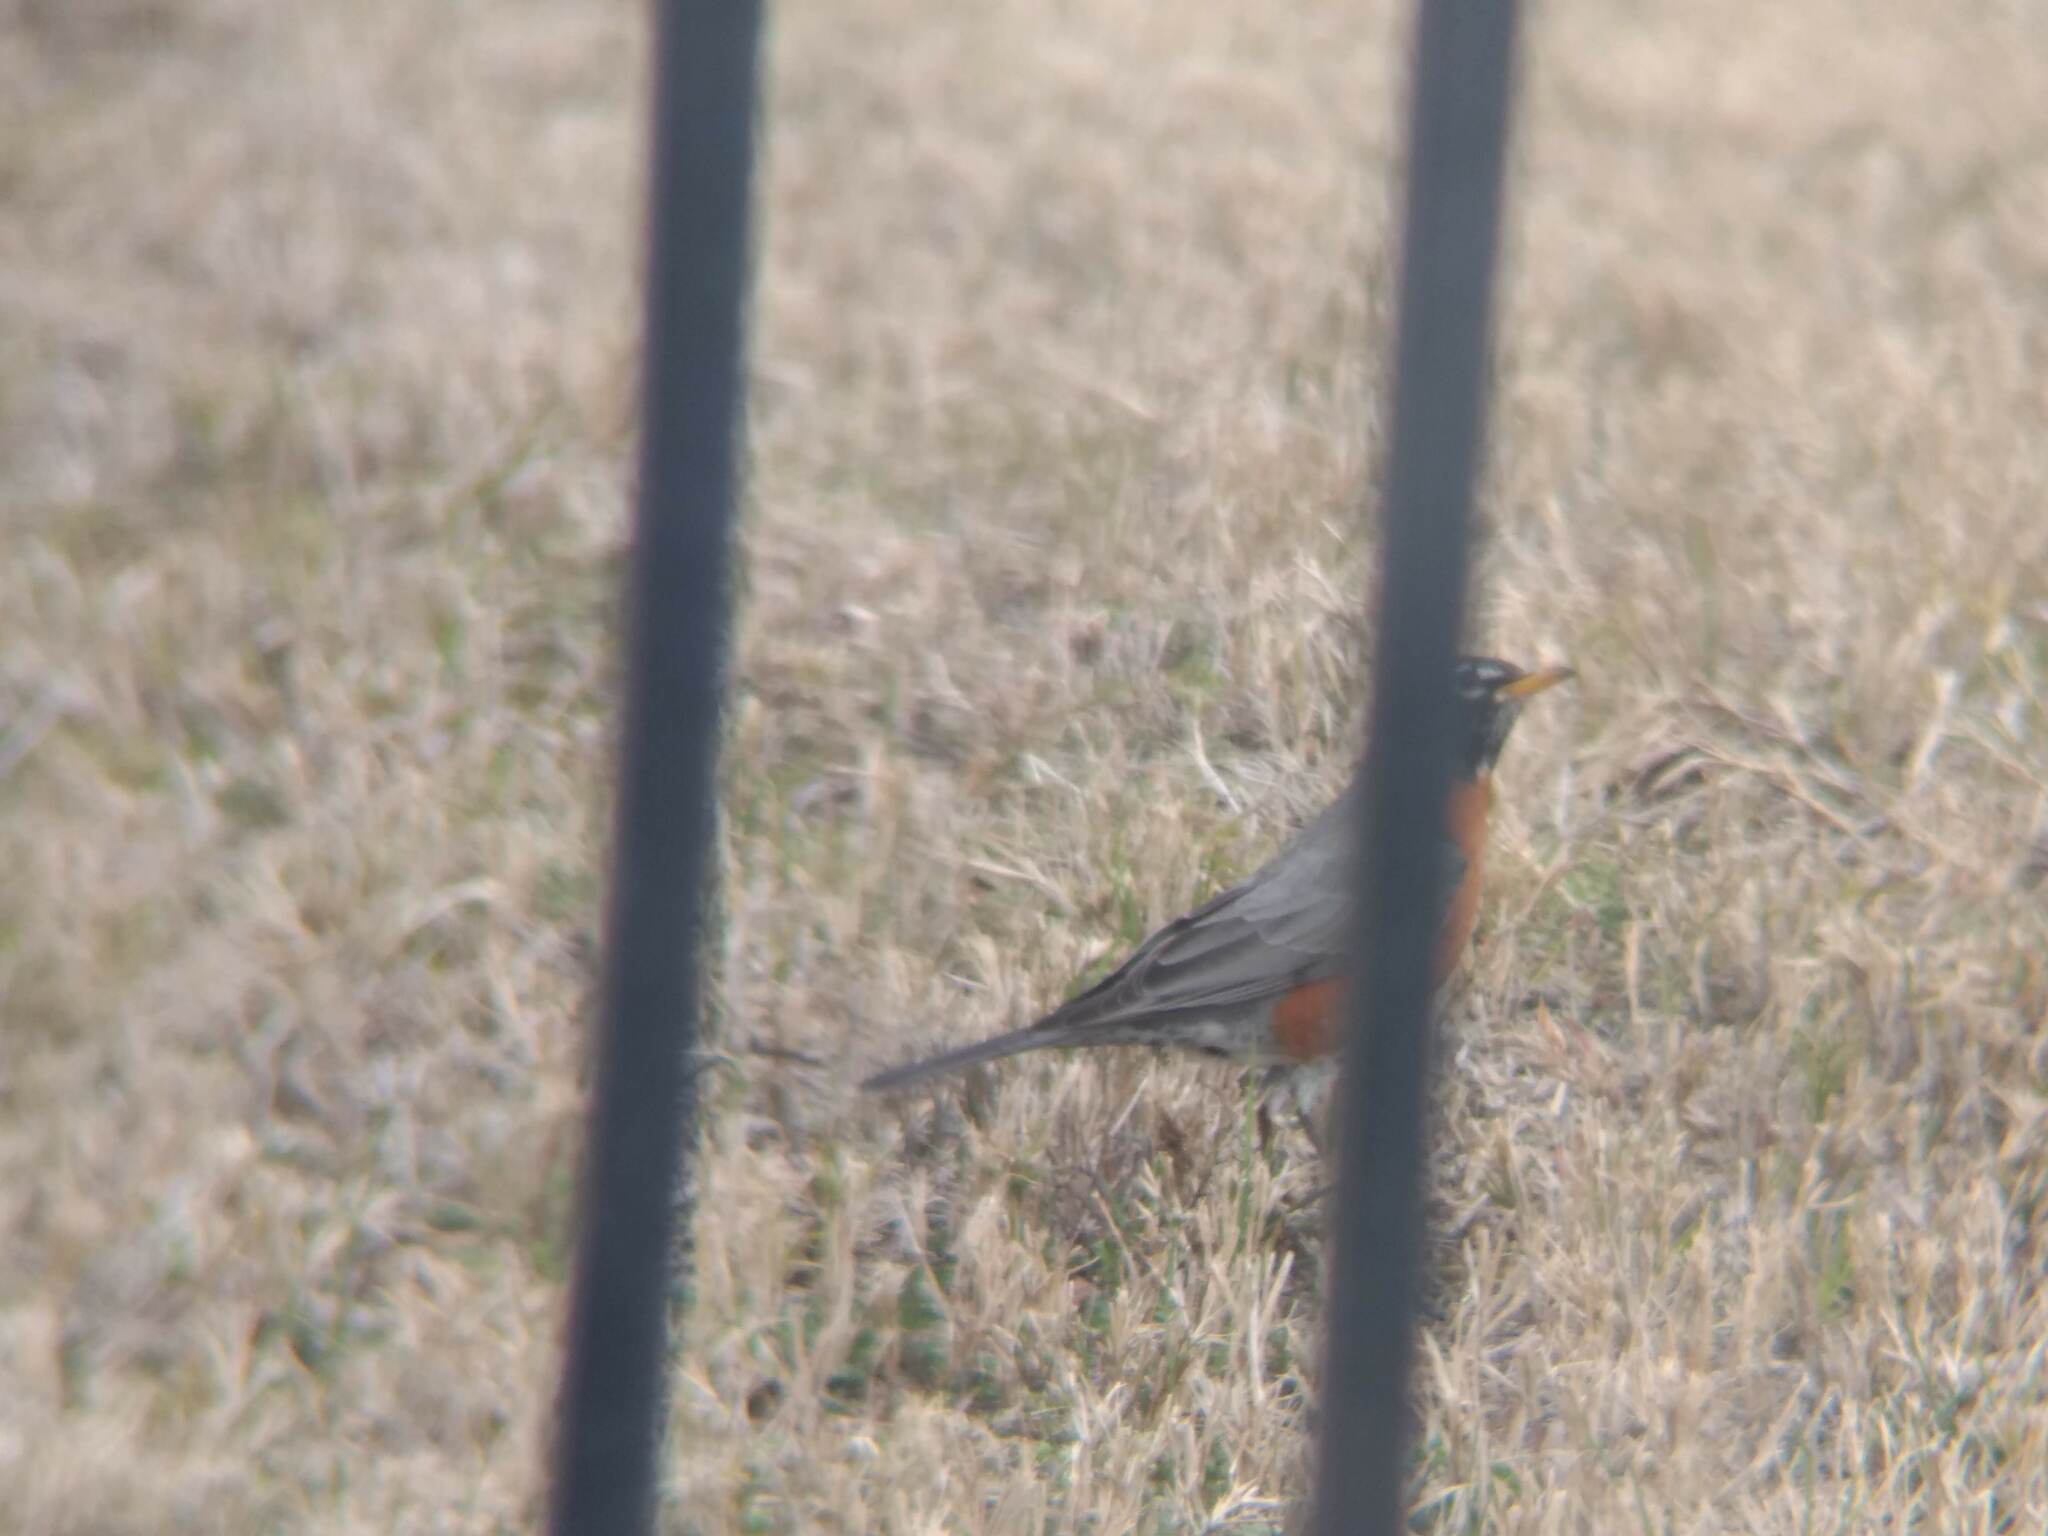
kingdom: Animalia
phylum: Chordata
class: Aves
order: Passeriformes
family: Turdidae
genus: Turdus
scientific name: Turdus migratorius
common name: American robin
